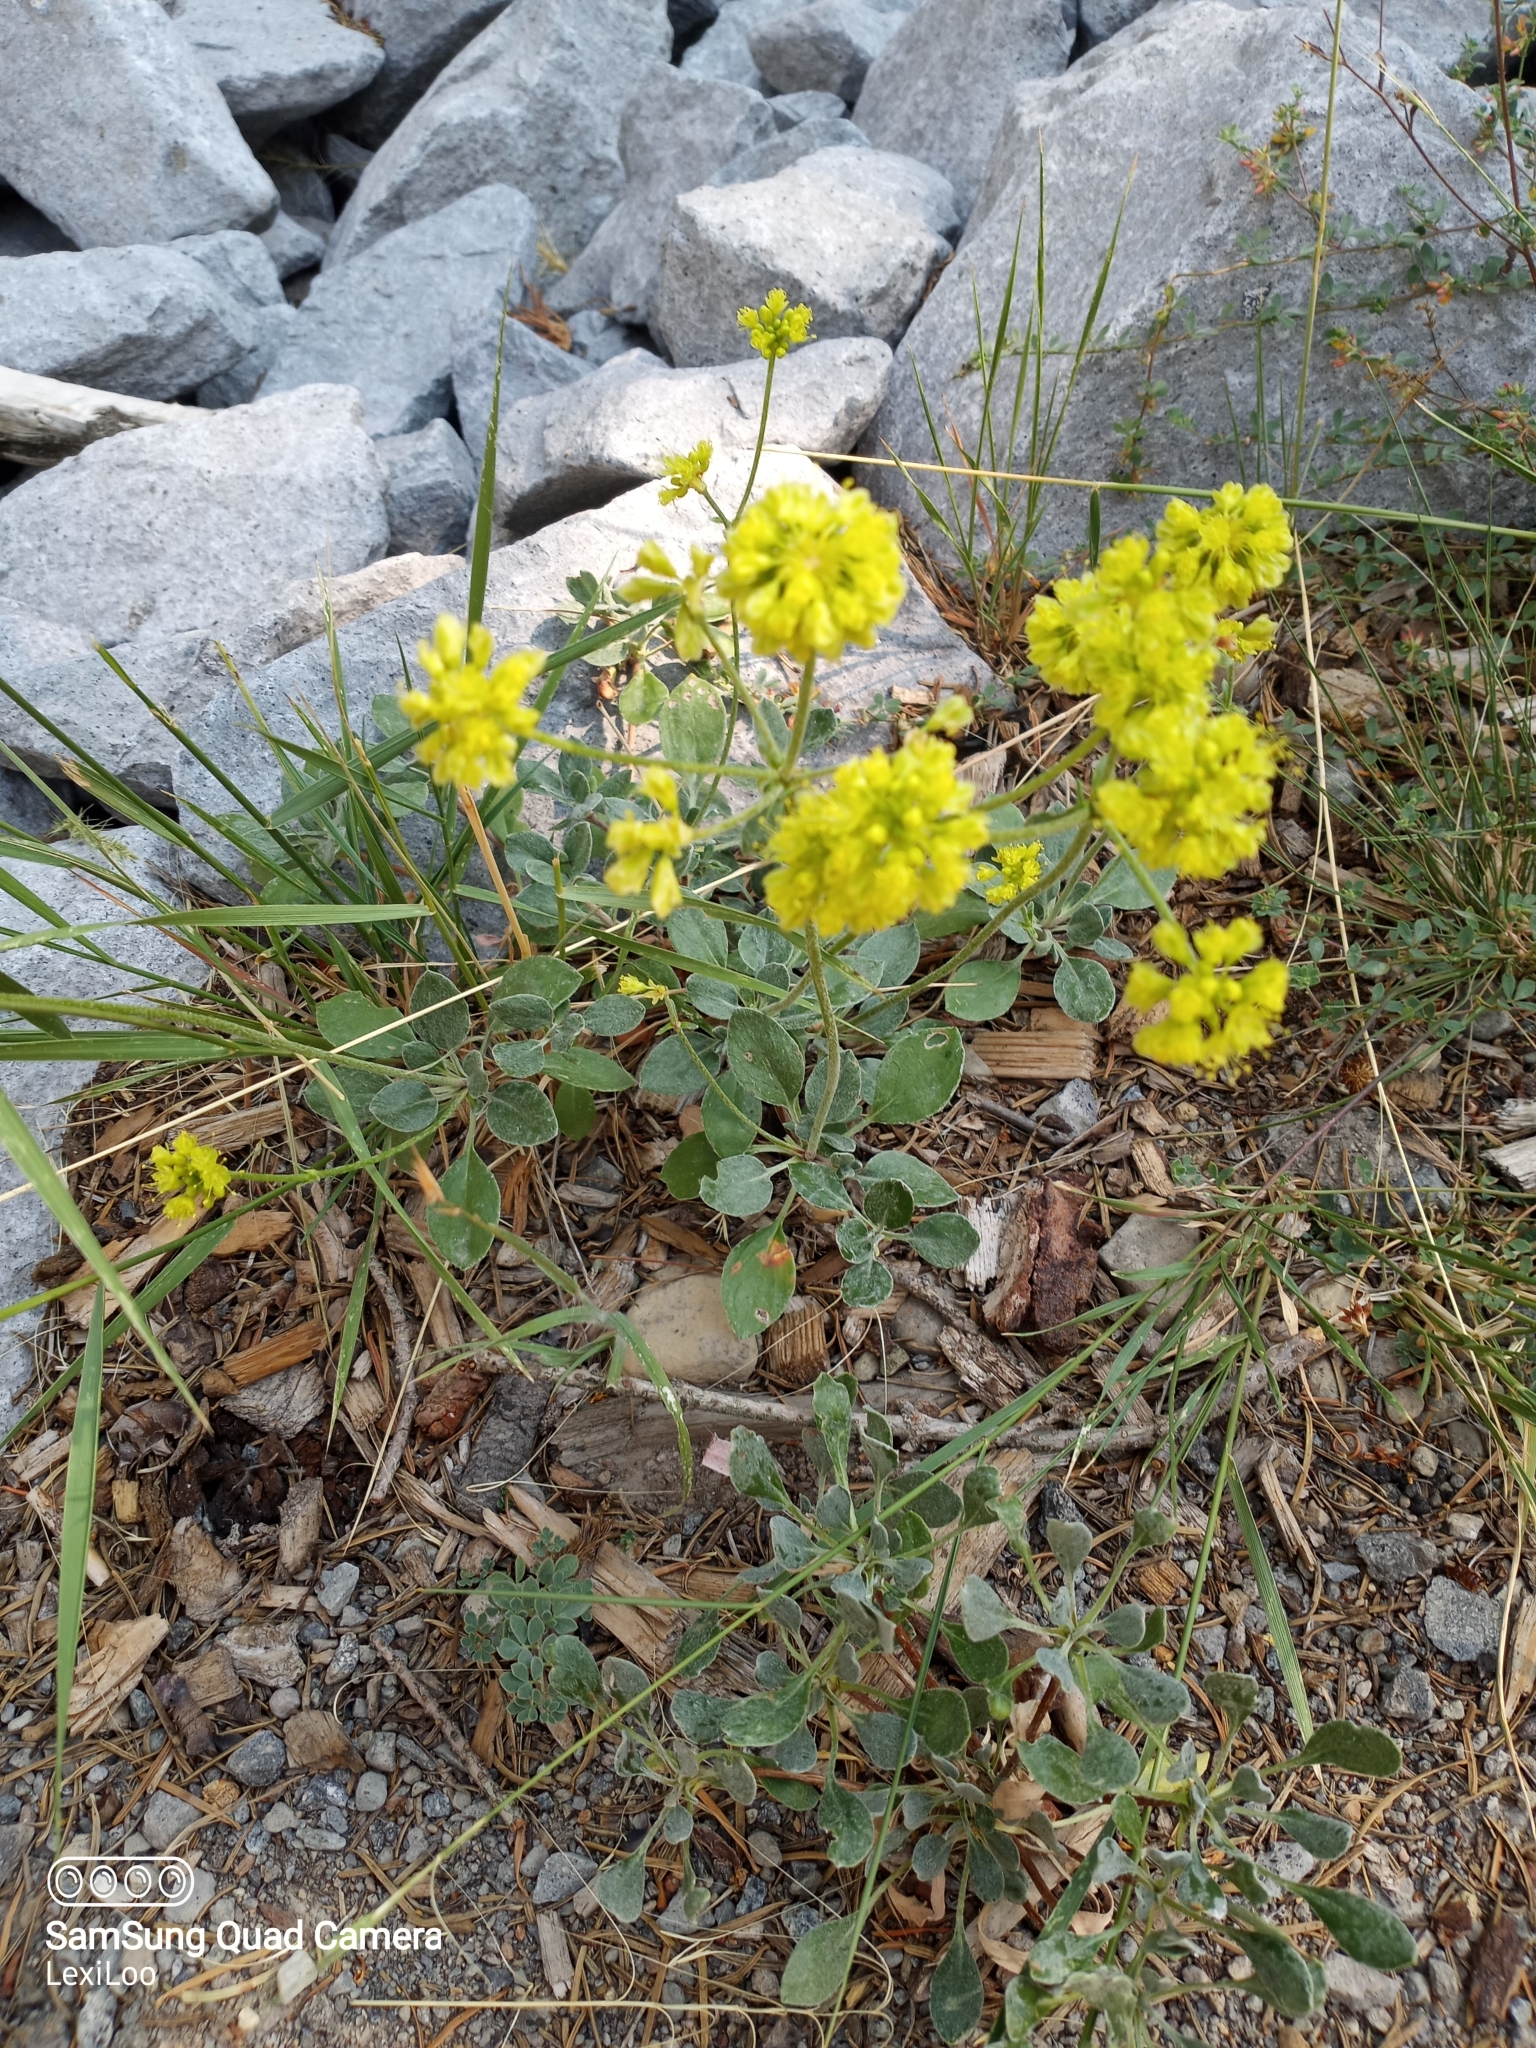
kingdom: Plantae
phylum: Tracheophyta
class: Magnoliopsida
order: Caryophyllales
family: Polygonaceae
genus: Eriogonum
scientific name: Eriogonum umbellatum
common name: Sulfur-buckwheat
